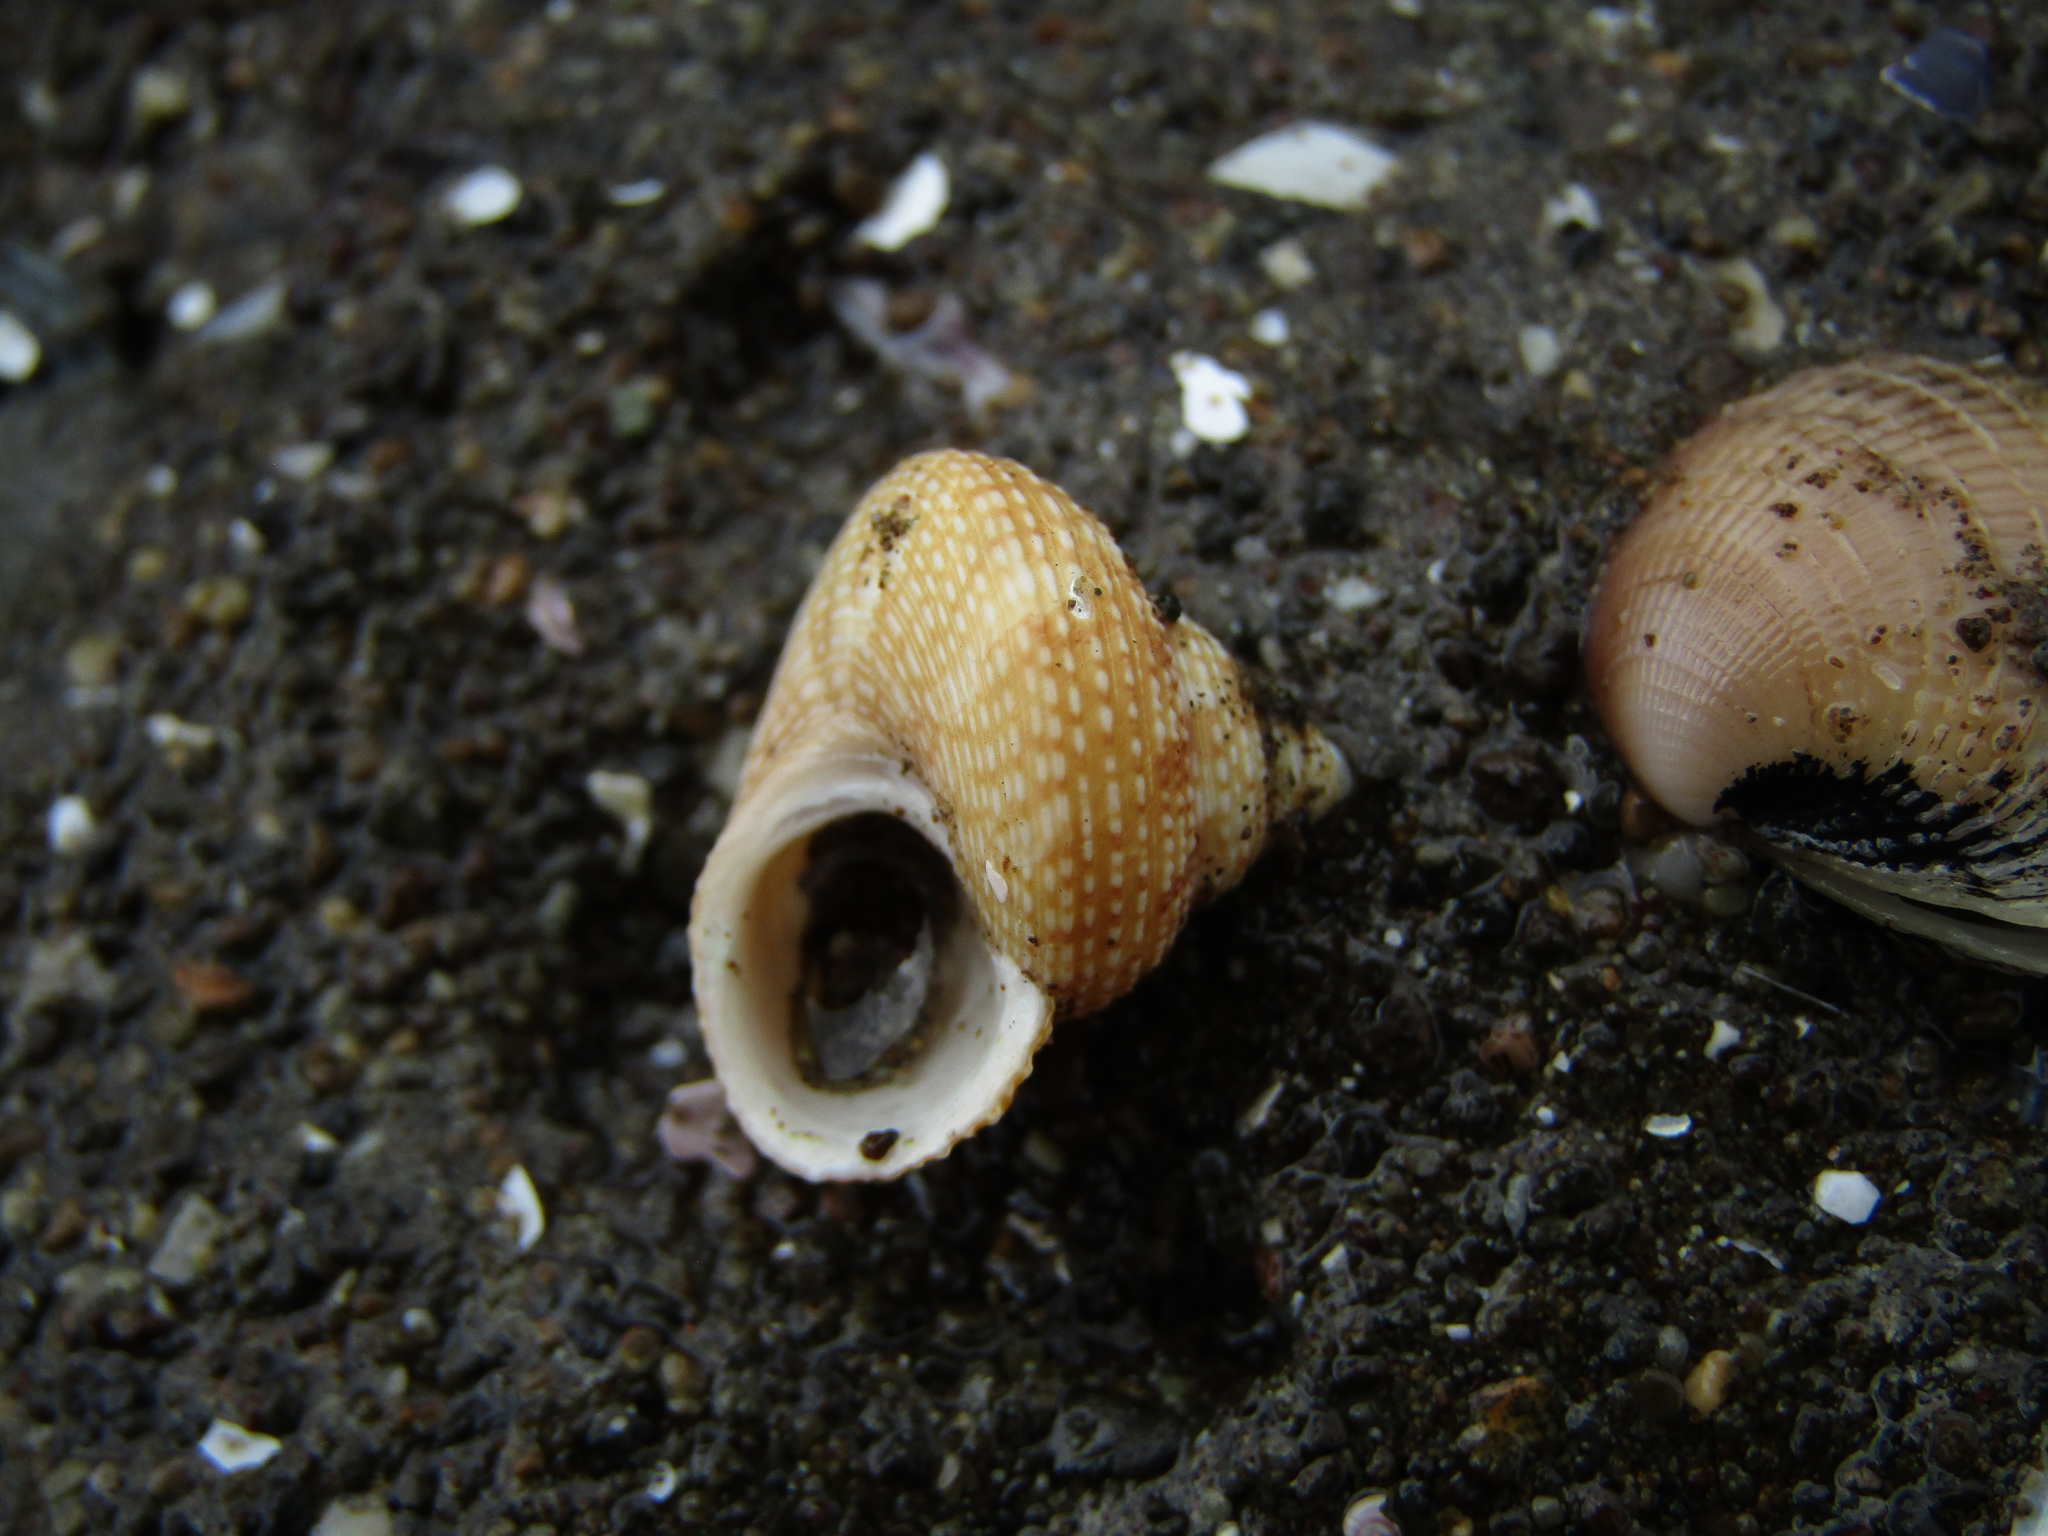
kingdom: Animalia
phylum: Mollusca
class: Gastropoda
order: Trochida
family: Calliostomatidae
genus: Maurea
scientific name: Maurea punctulata
